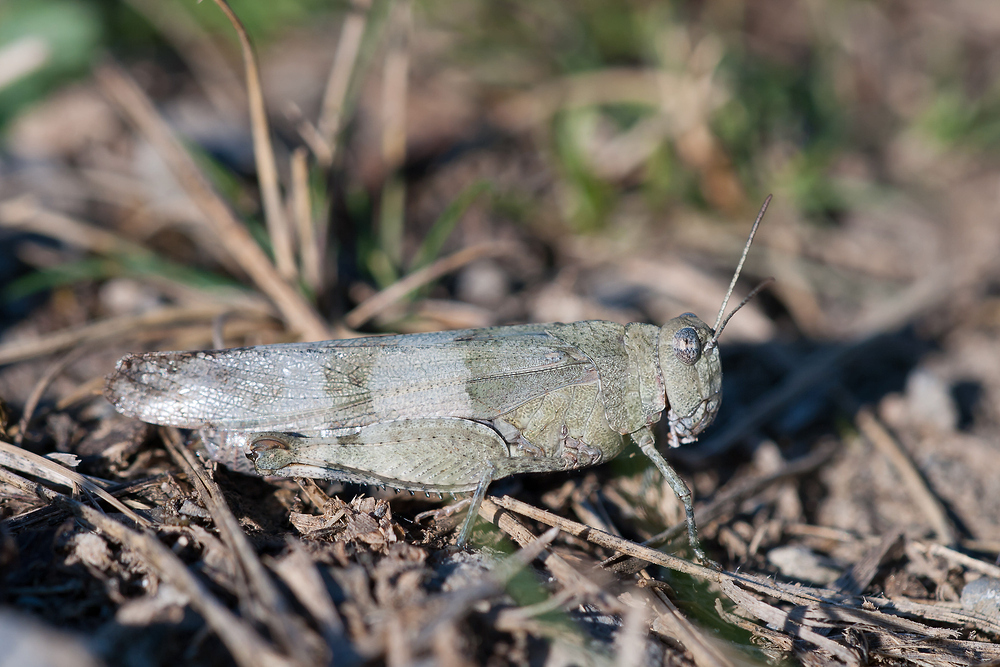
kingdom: Animalia
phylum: Arthropoda
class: Insecta
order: Orthoptera
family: Acrididae
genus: Oedipoda
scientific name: Oedipoda caerulescens
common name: Blue-winged grasshopper
